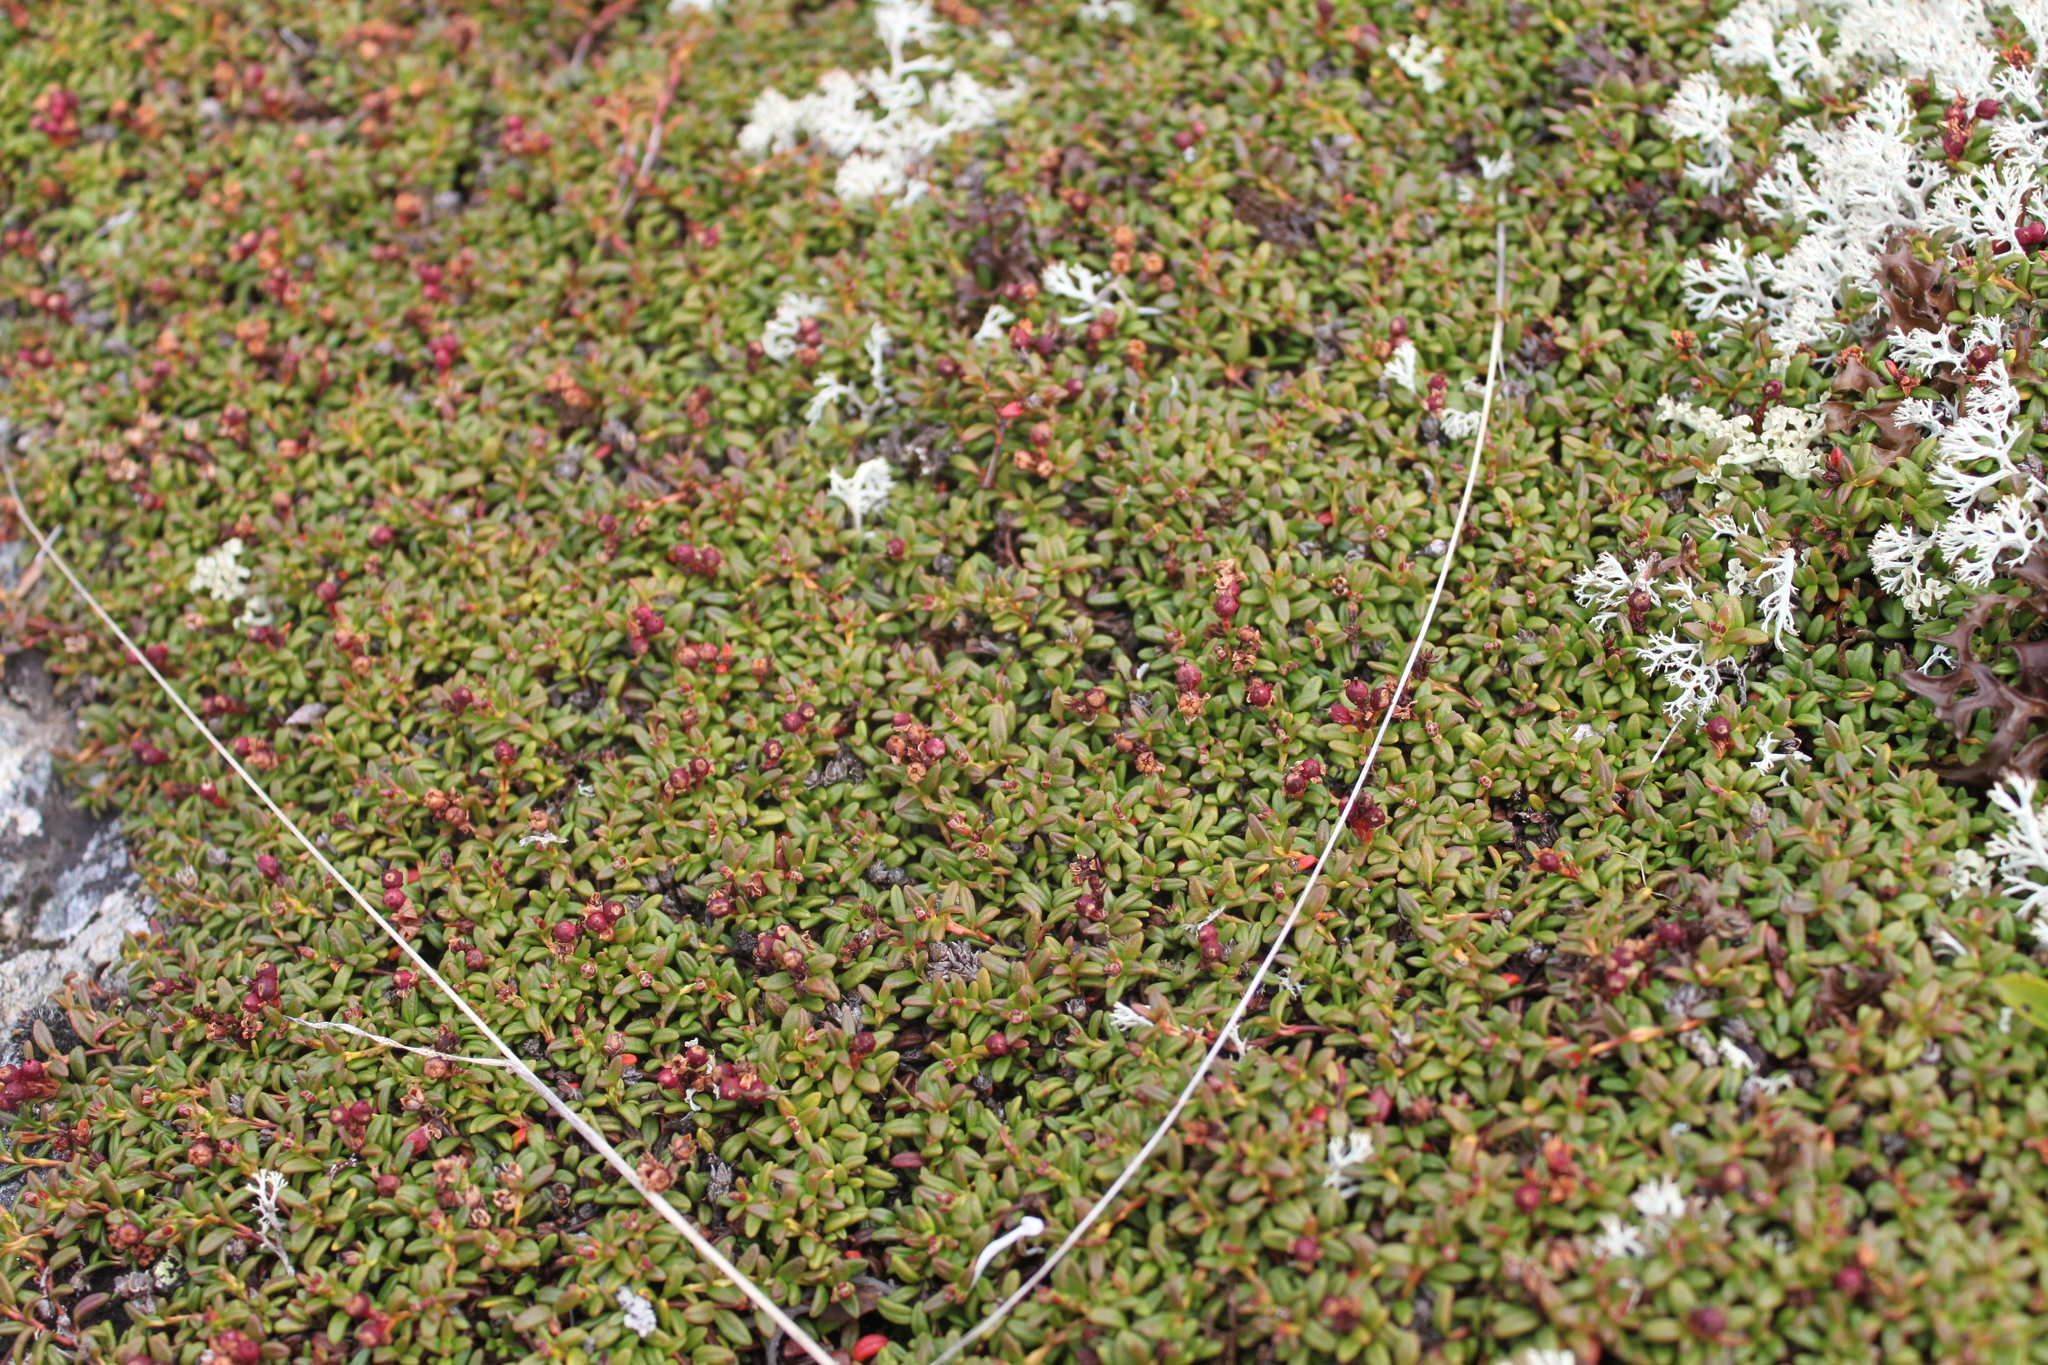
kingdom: Plantae
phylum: Tracheophyta
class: Magnoliopsida
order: Ericales
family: Ericaceae
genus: Kalmia
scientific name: Kalmia procumbens
